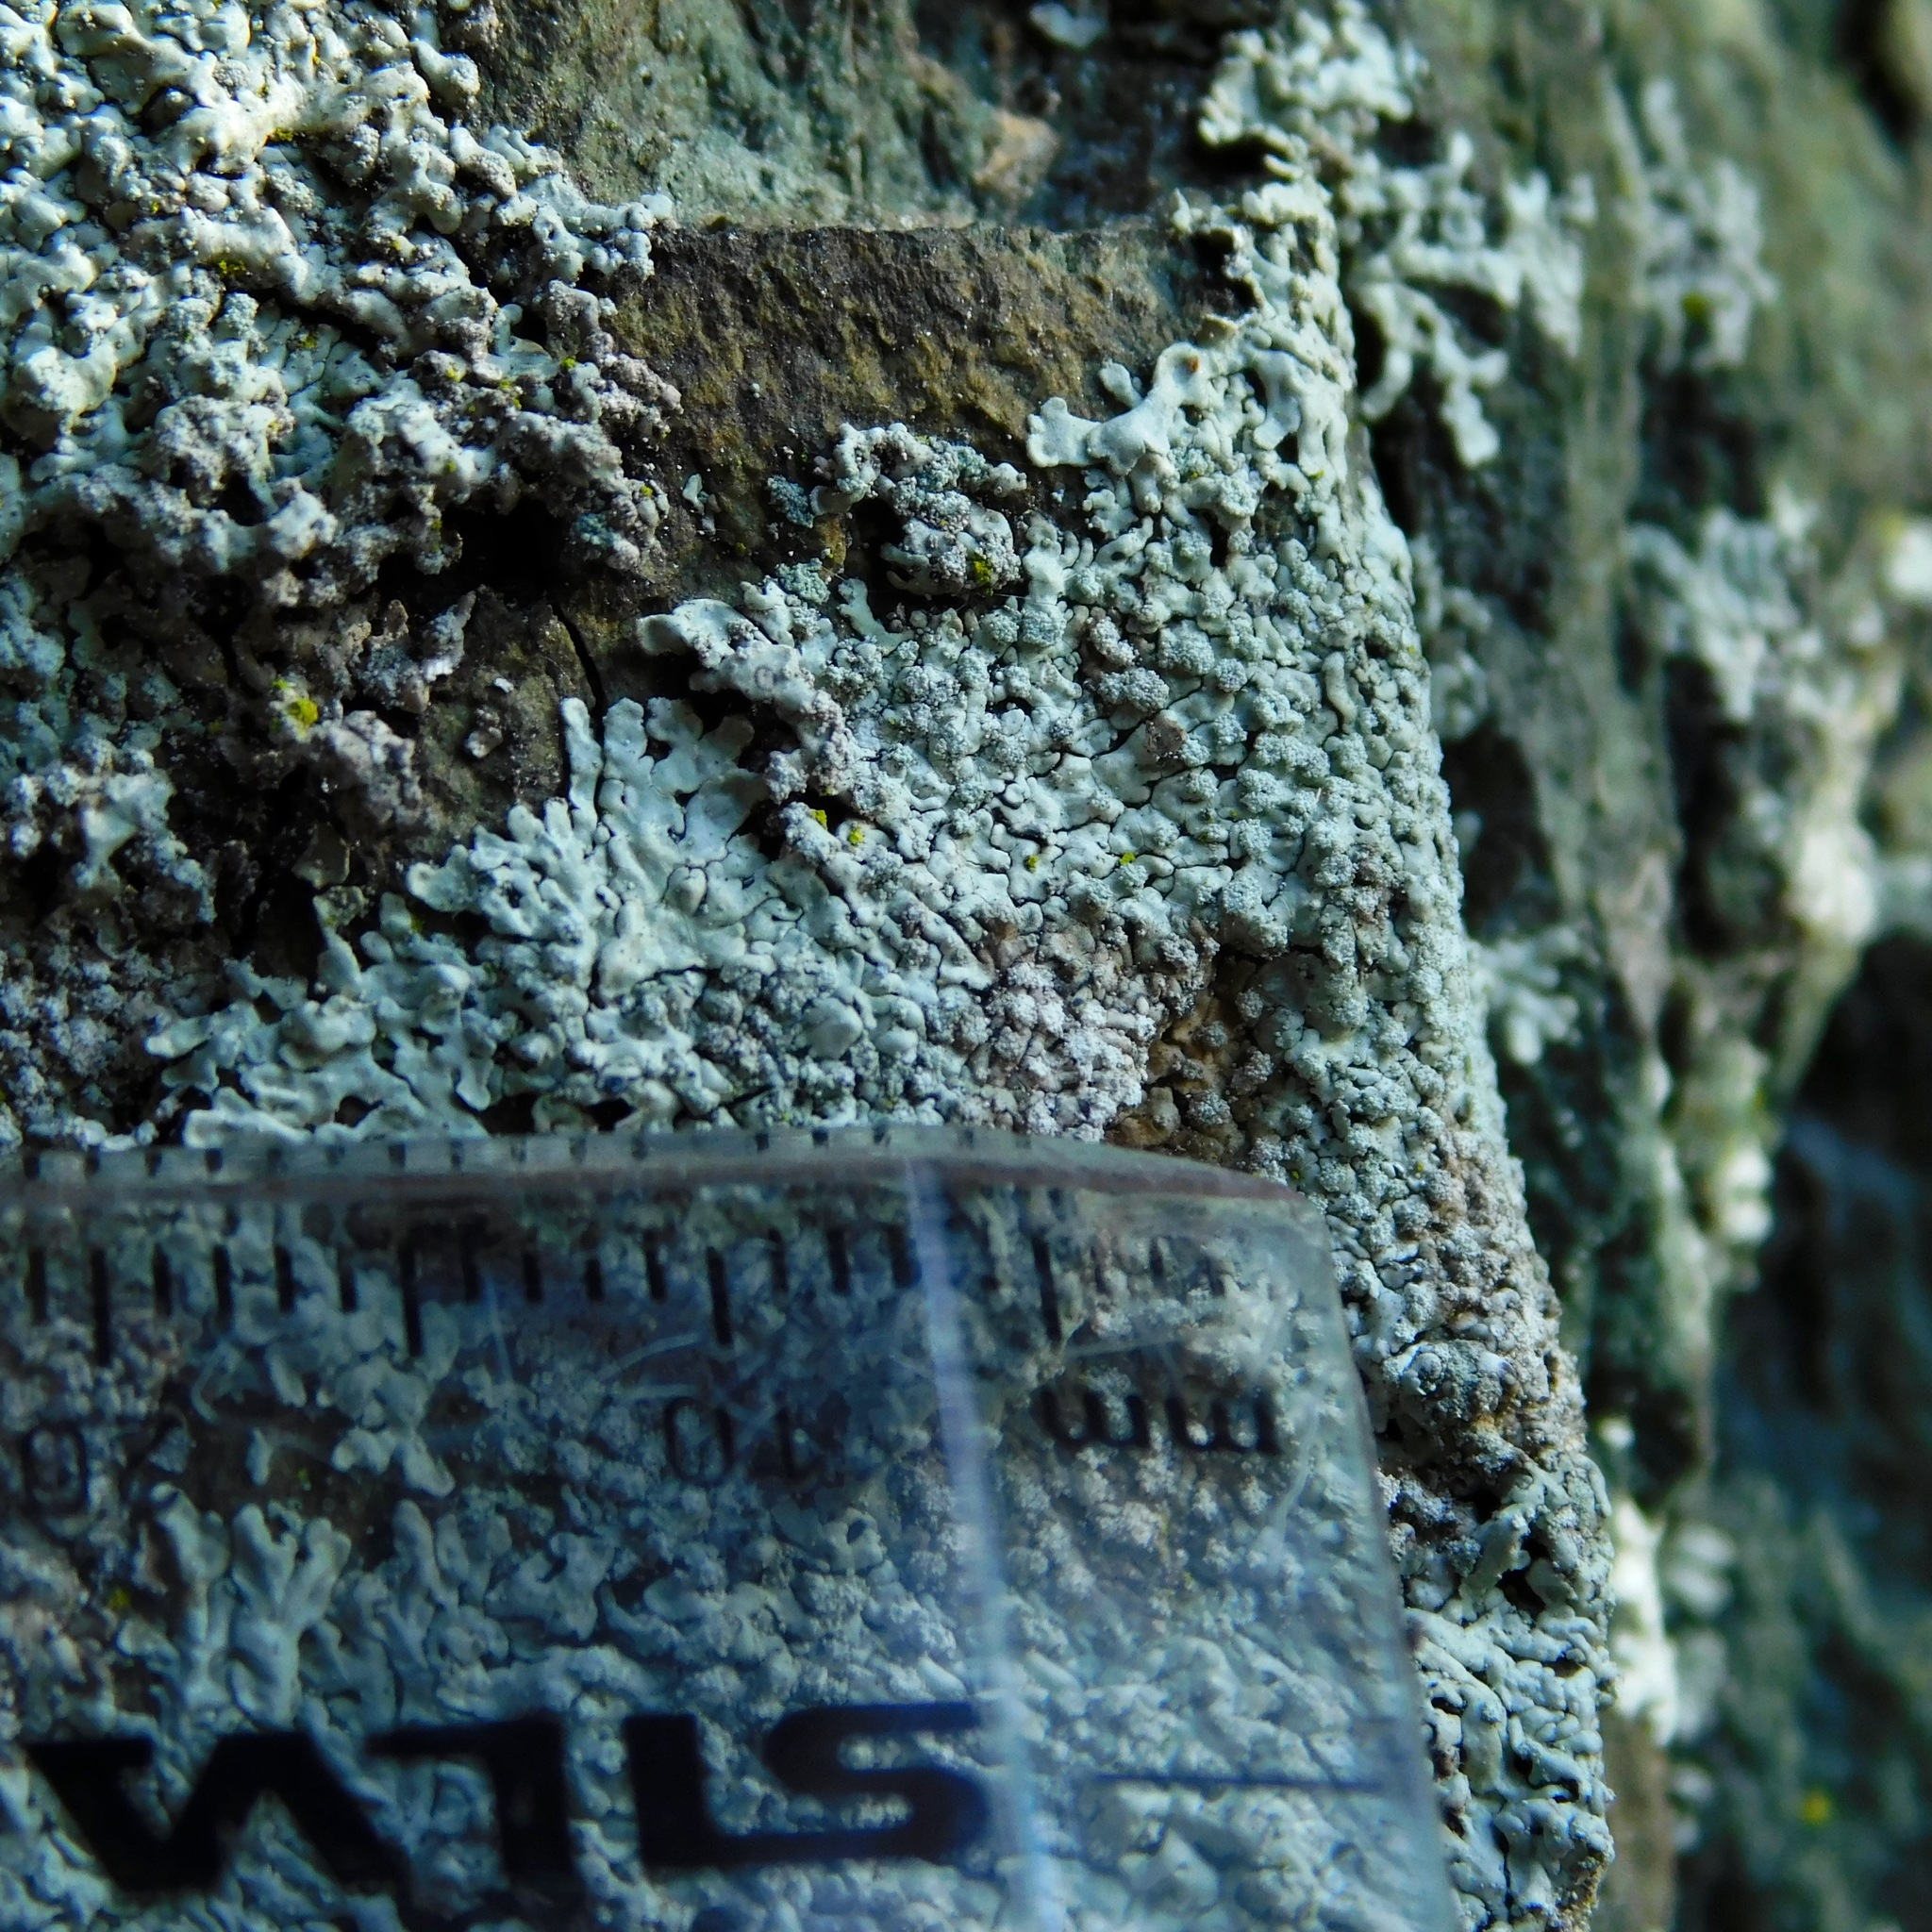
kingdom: Fungi
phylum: Ascomycota
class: Lecanoromycetes
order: Caliciales
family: Caliciaceae
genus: Dirinaria
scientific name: Dirinaria frostii
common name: Frosty medallion lichen
